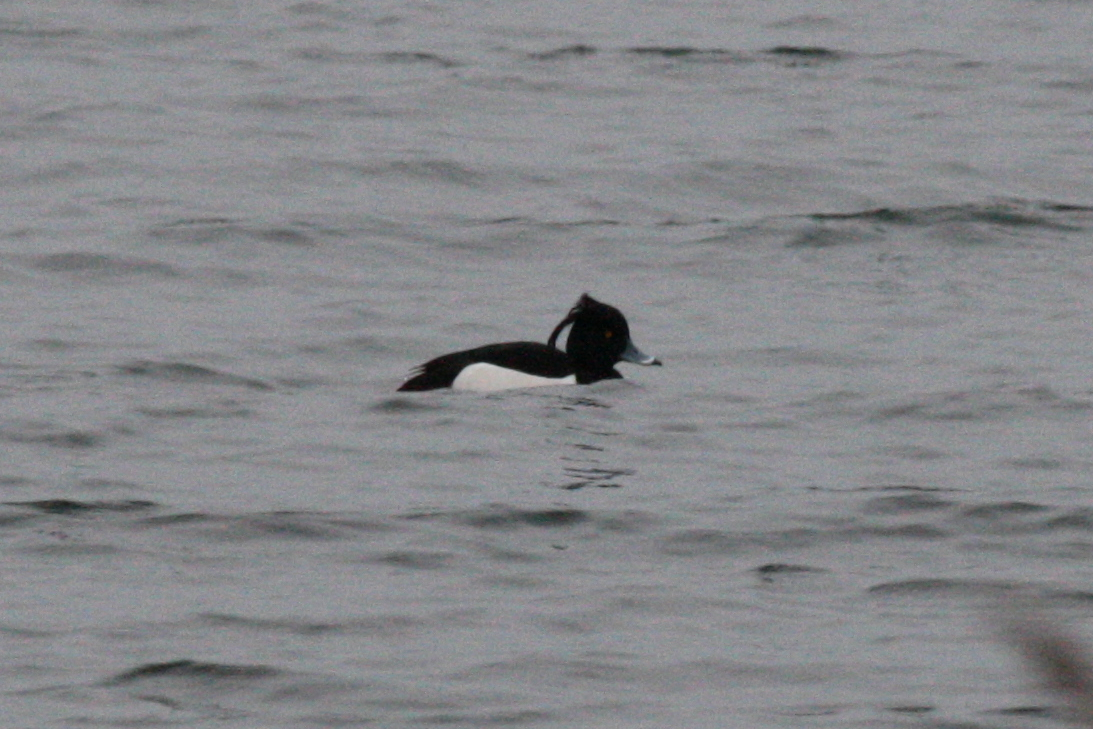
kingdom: Animalia
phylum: Chordata
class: Aves
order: Anseriformes
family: Anatidae
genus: Aythya
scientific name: Aythya fuligula
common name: Tufted duck
